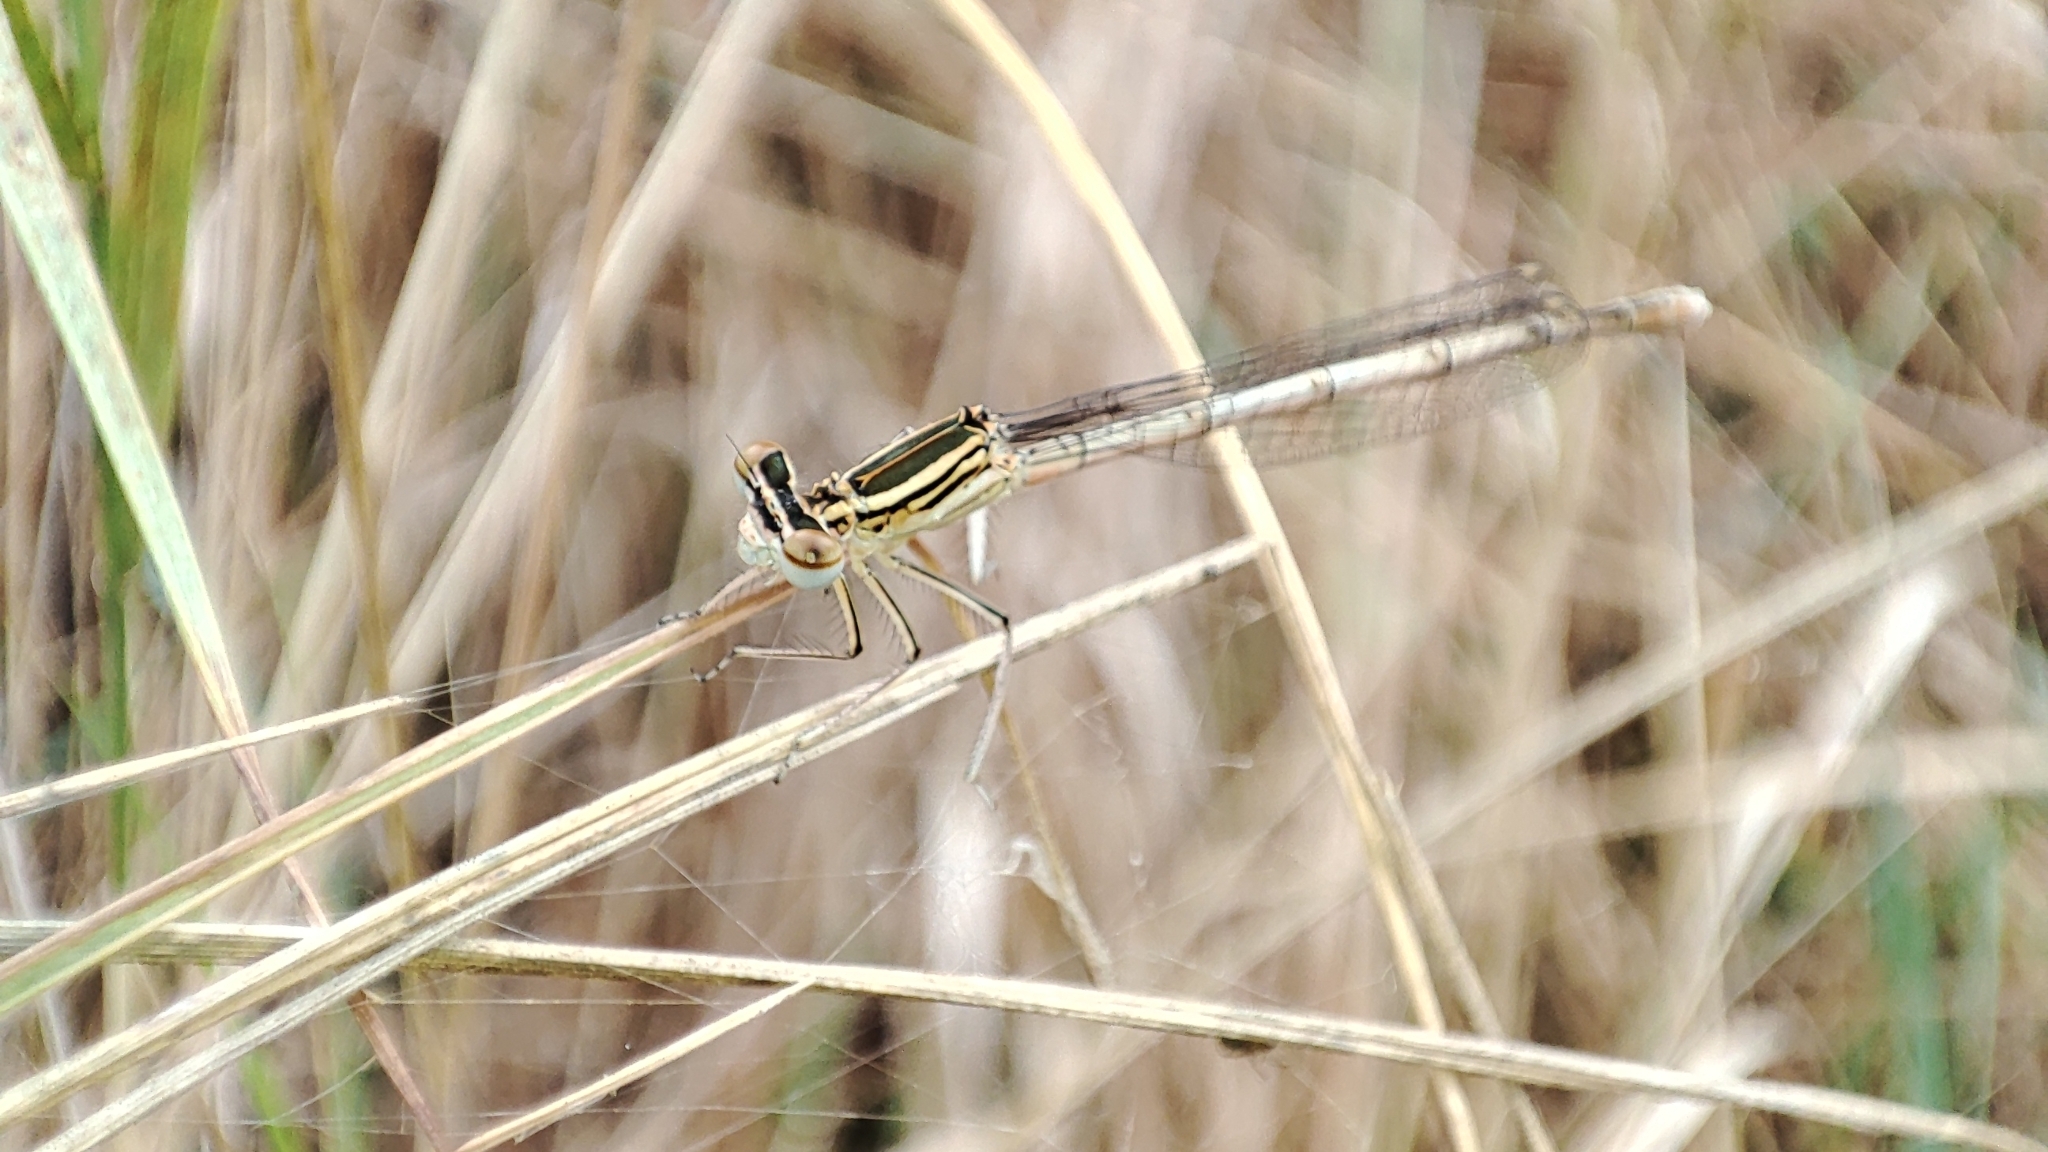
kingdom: Animalia
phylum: Arthropoda
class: Insecta
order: Odonata
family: Platycnemididae
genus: Platycnemis
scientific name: Platycnemis pennipes
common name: White-legged damselfly
